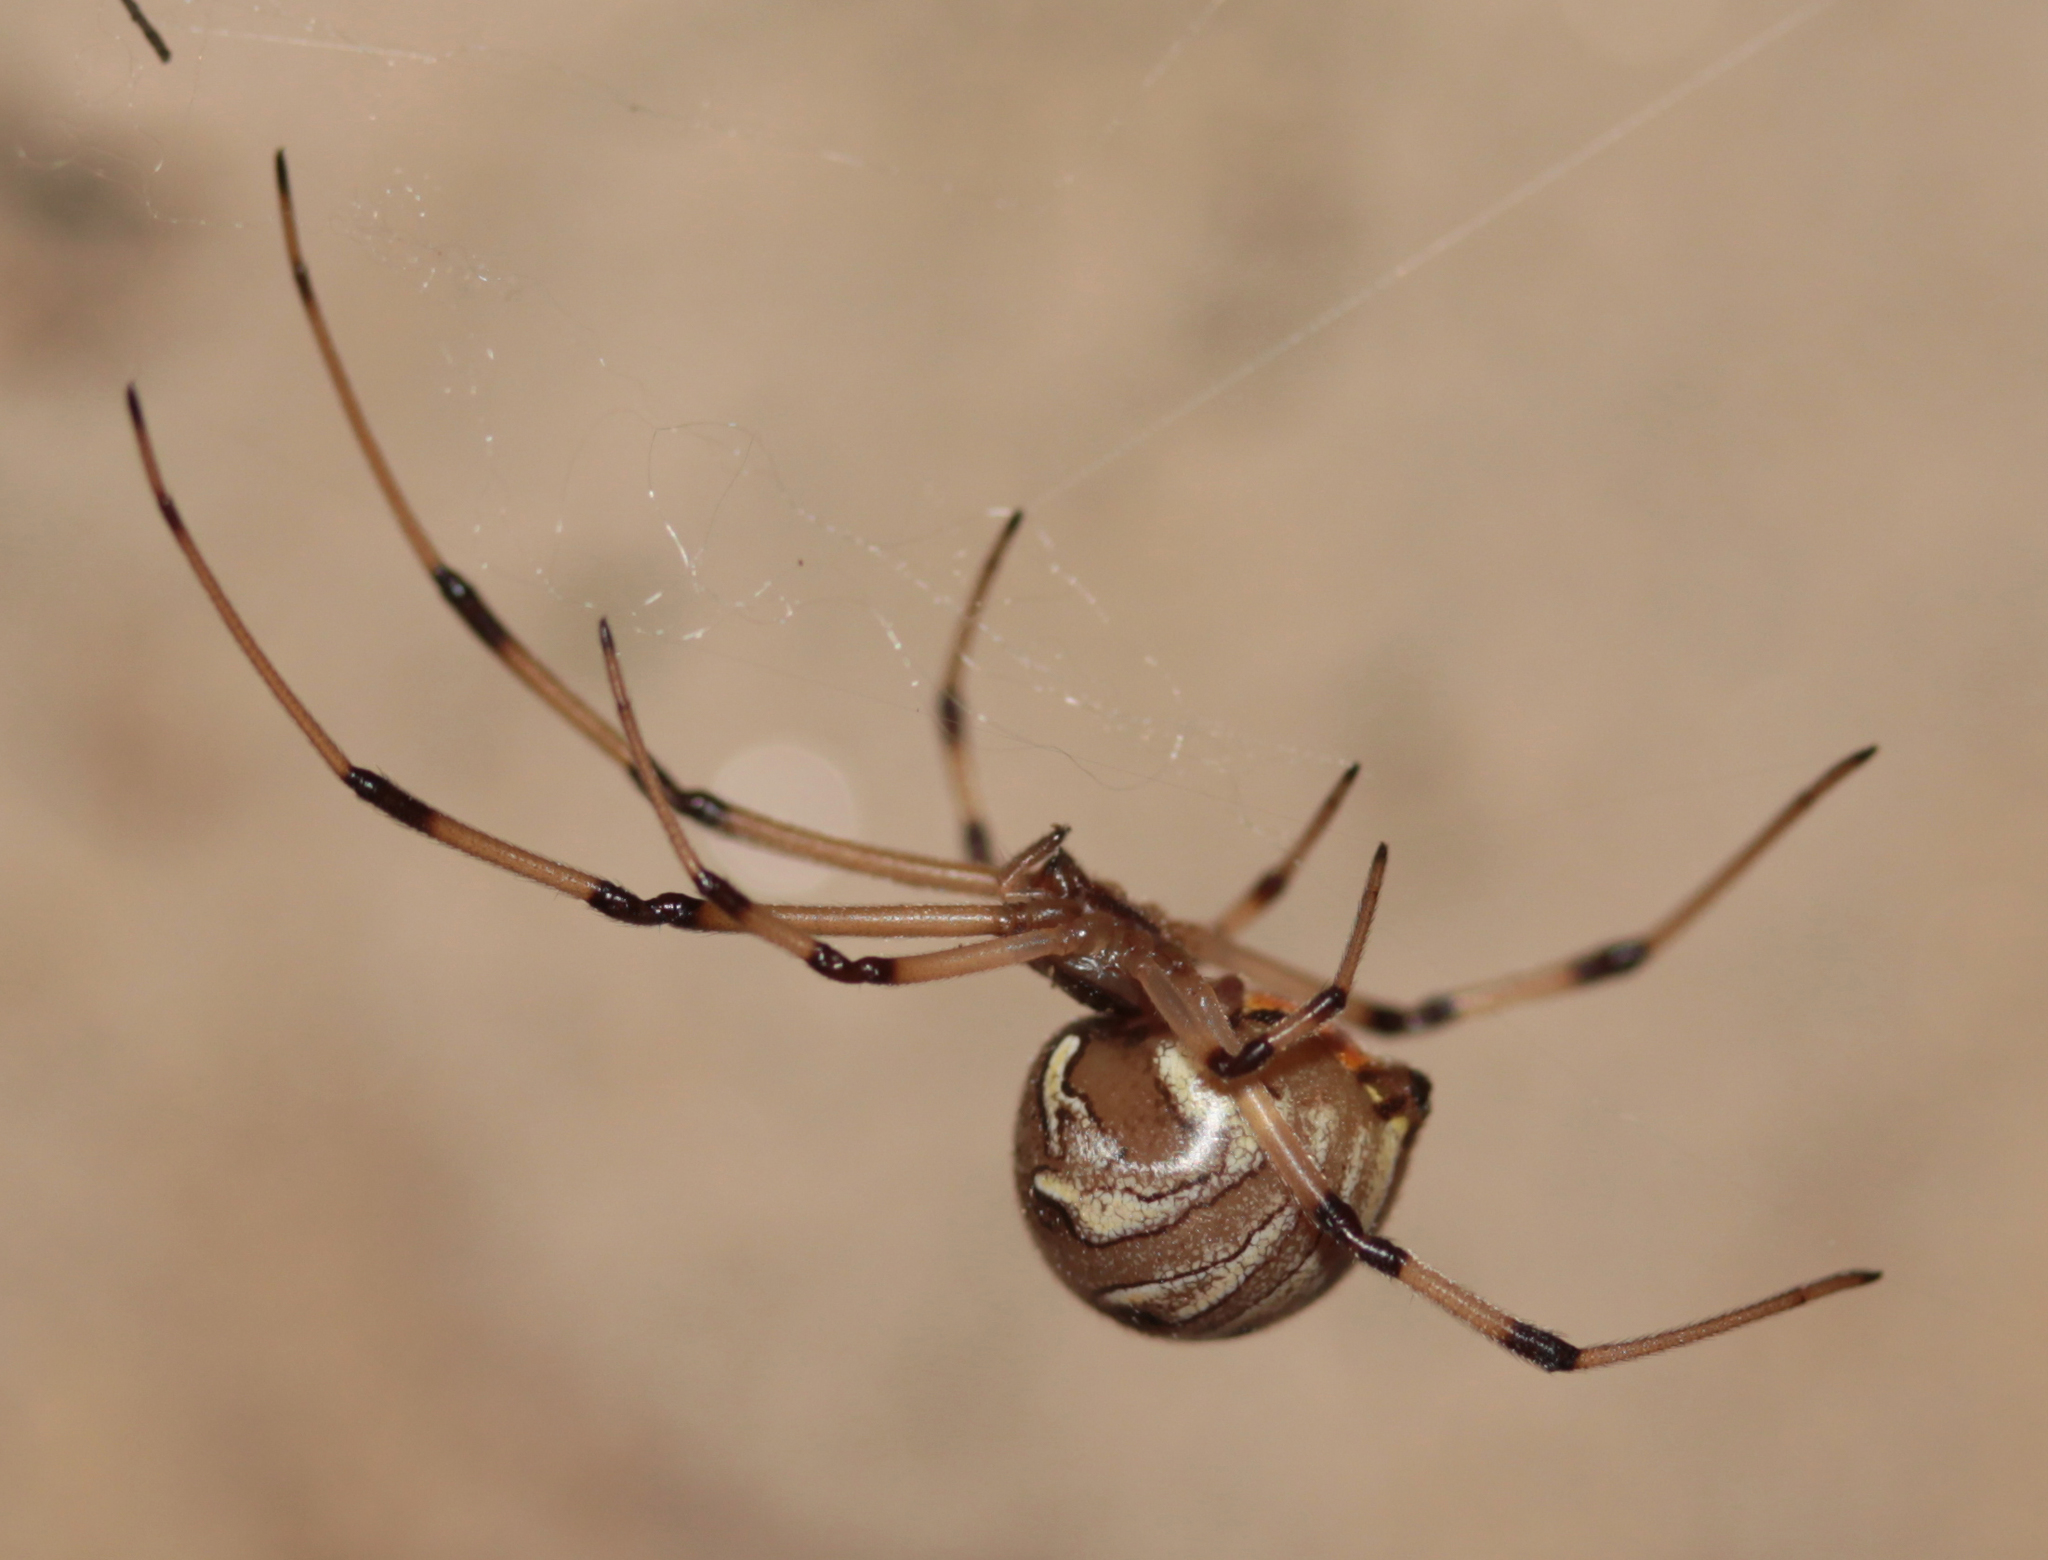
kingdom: Animalia
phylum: Arthropoda
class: Arachnida
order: Araneae
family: Theridiidae
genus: Latrodectus
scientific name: Latrodectus geometricus
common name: Brown widow spider
